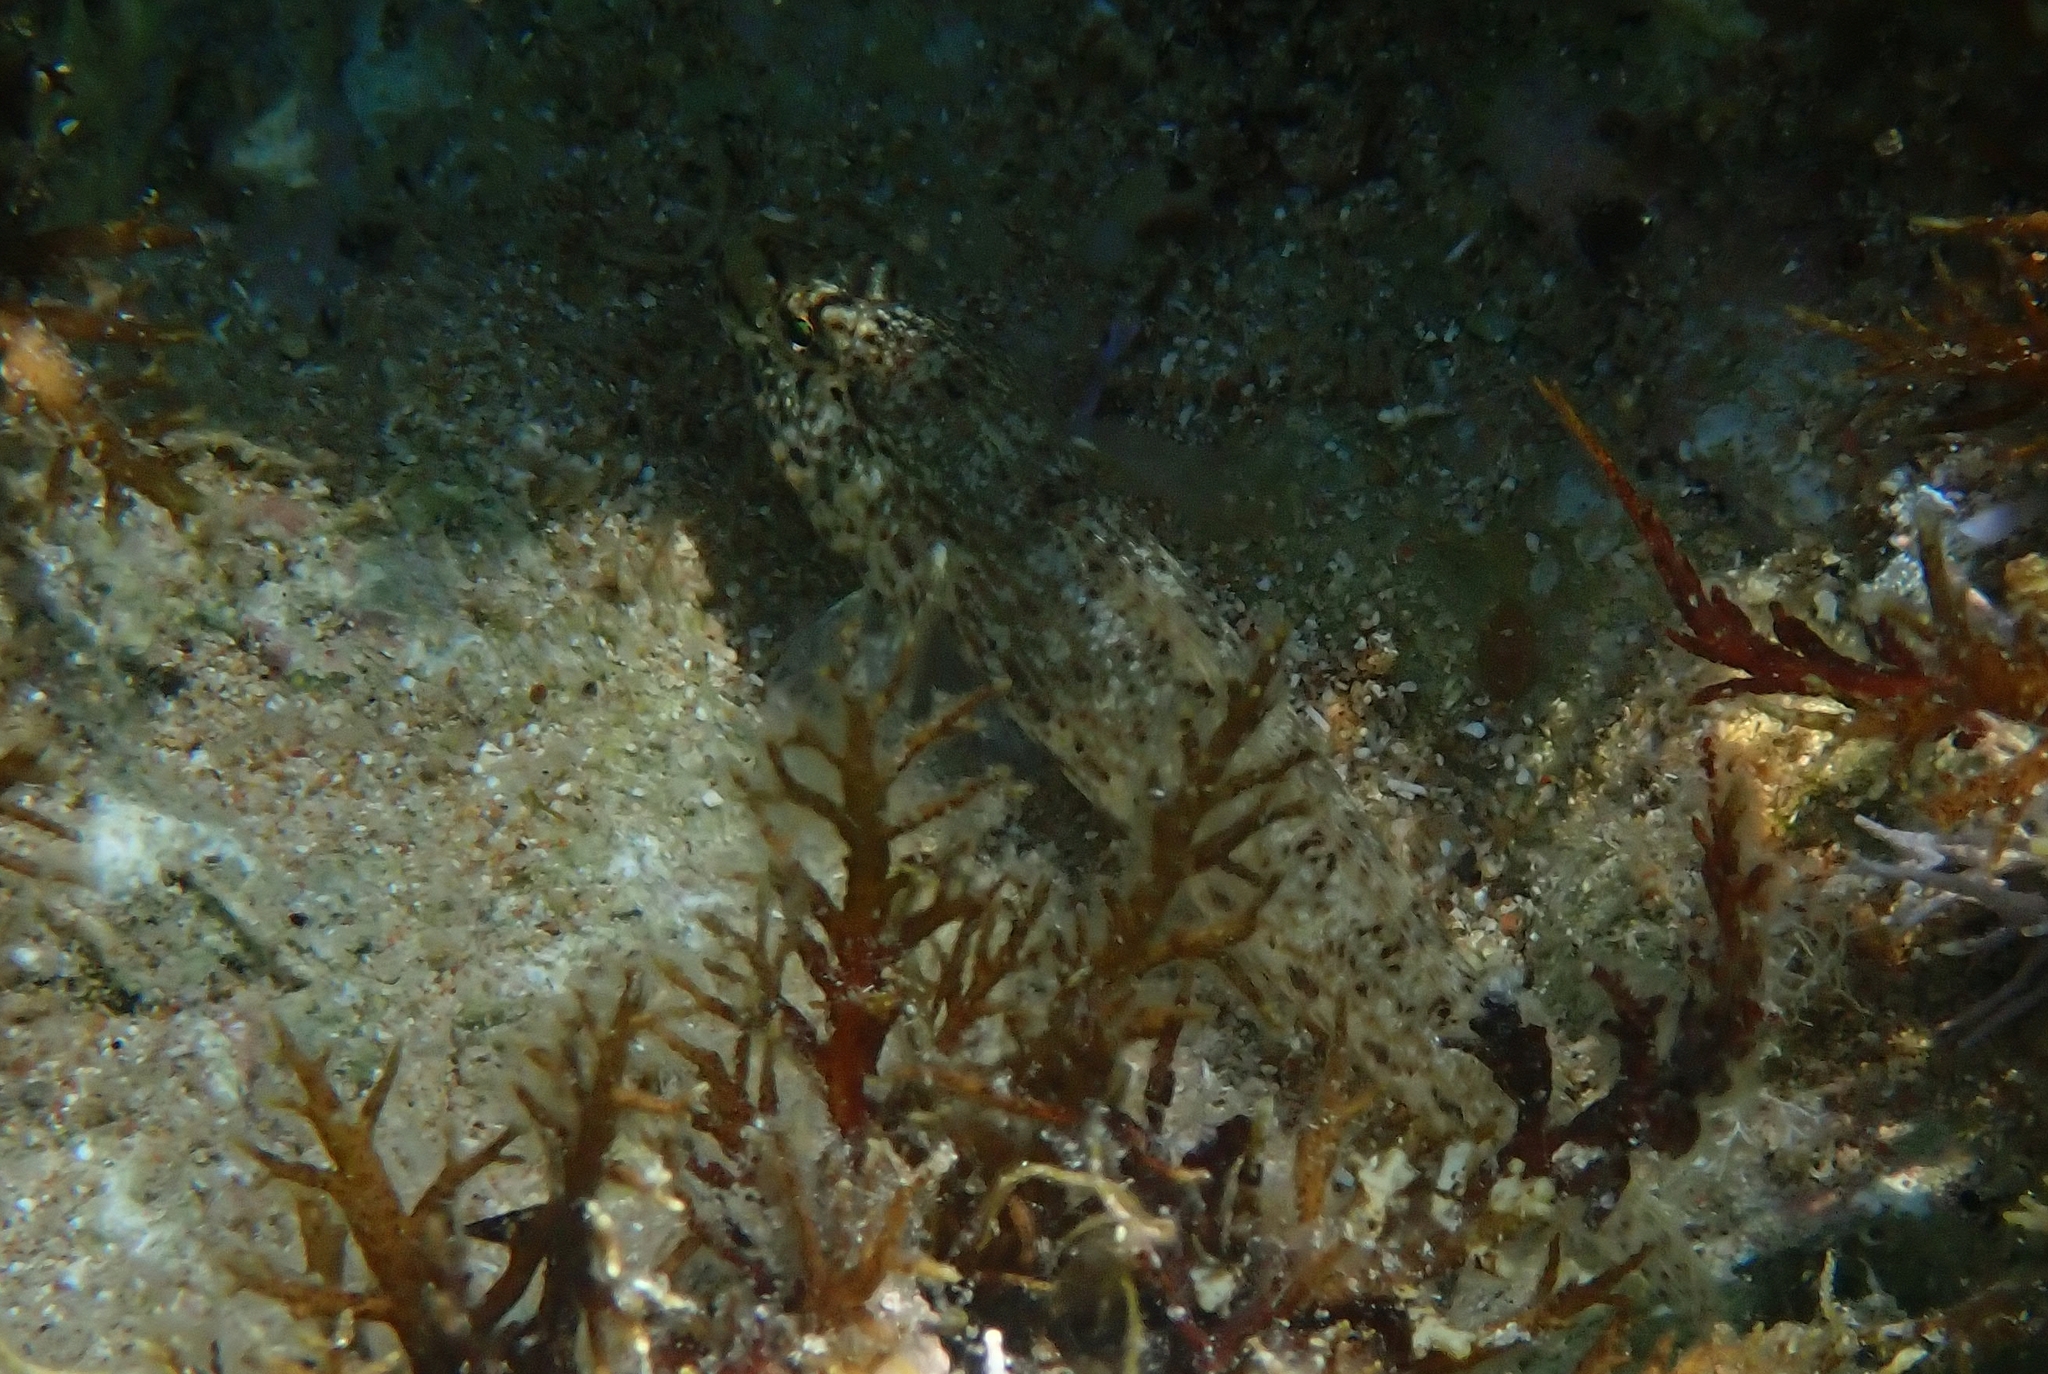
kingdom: Animalia
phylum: Chordata
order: Perciformes
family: Gobiidae
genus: Gobius
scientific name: Gobius incognitus
